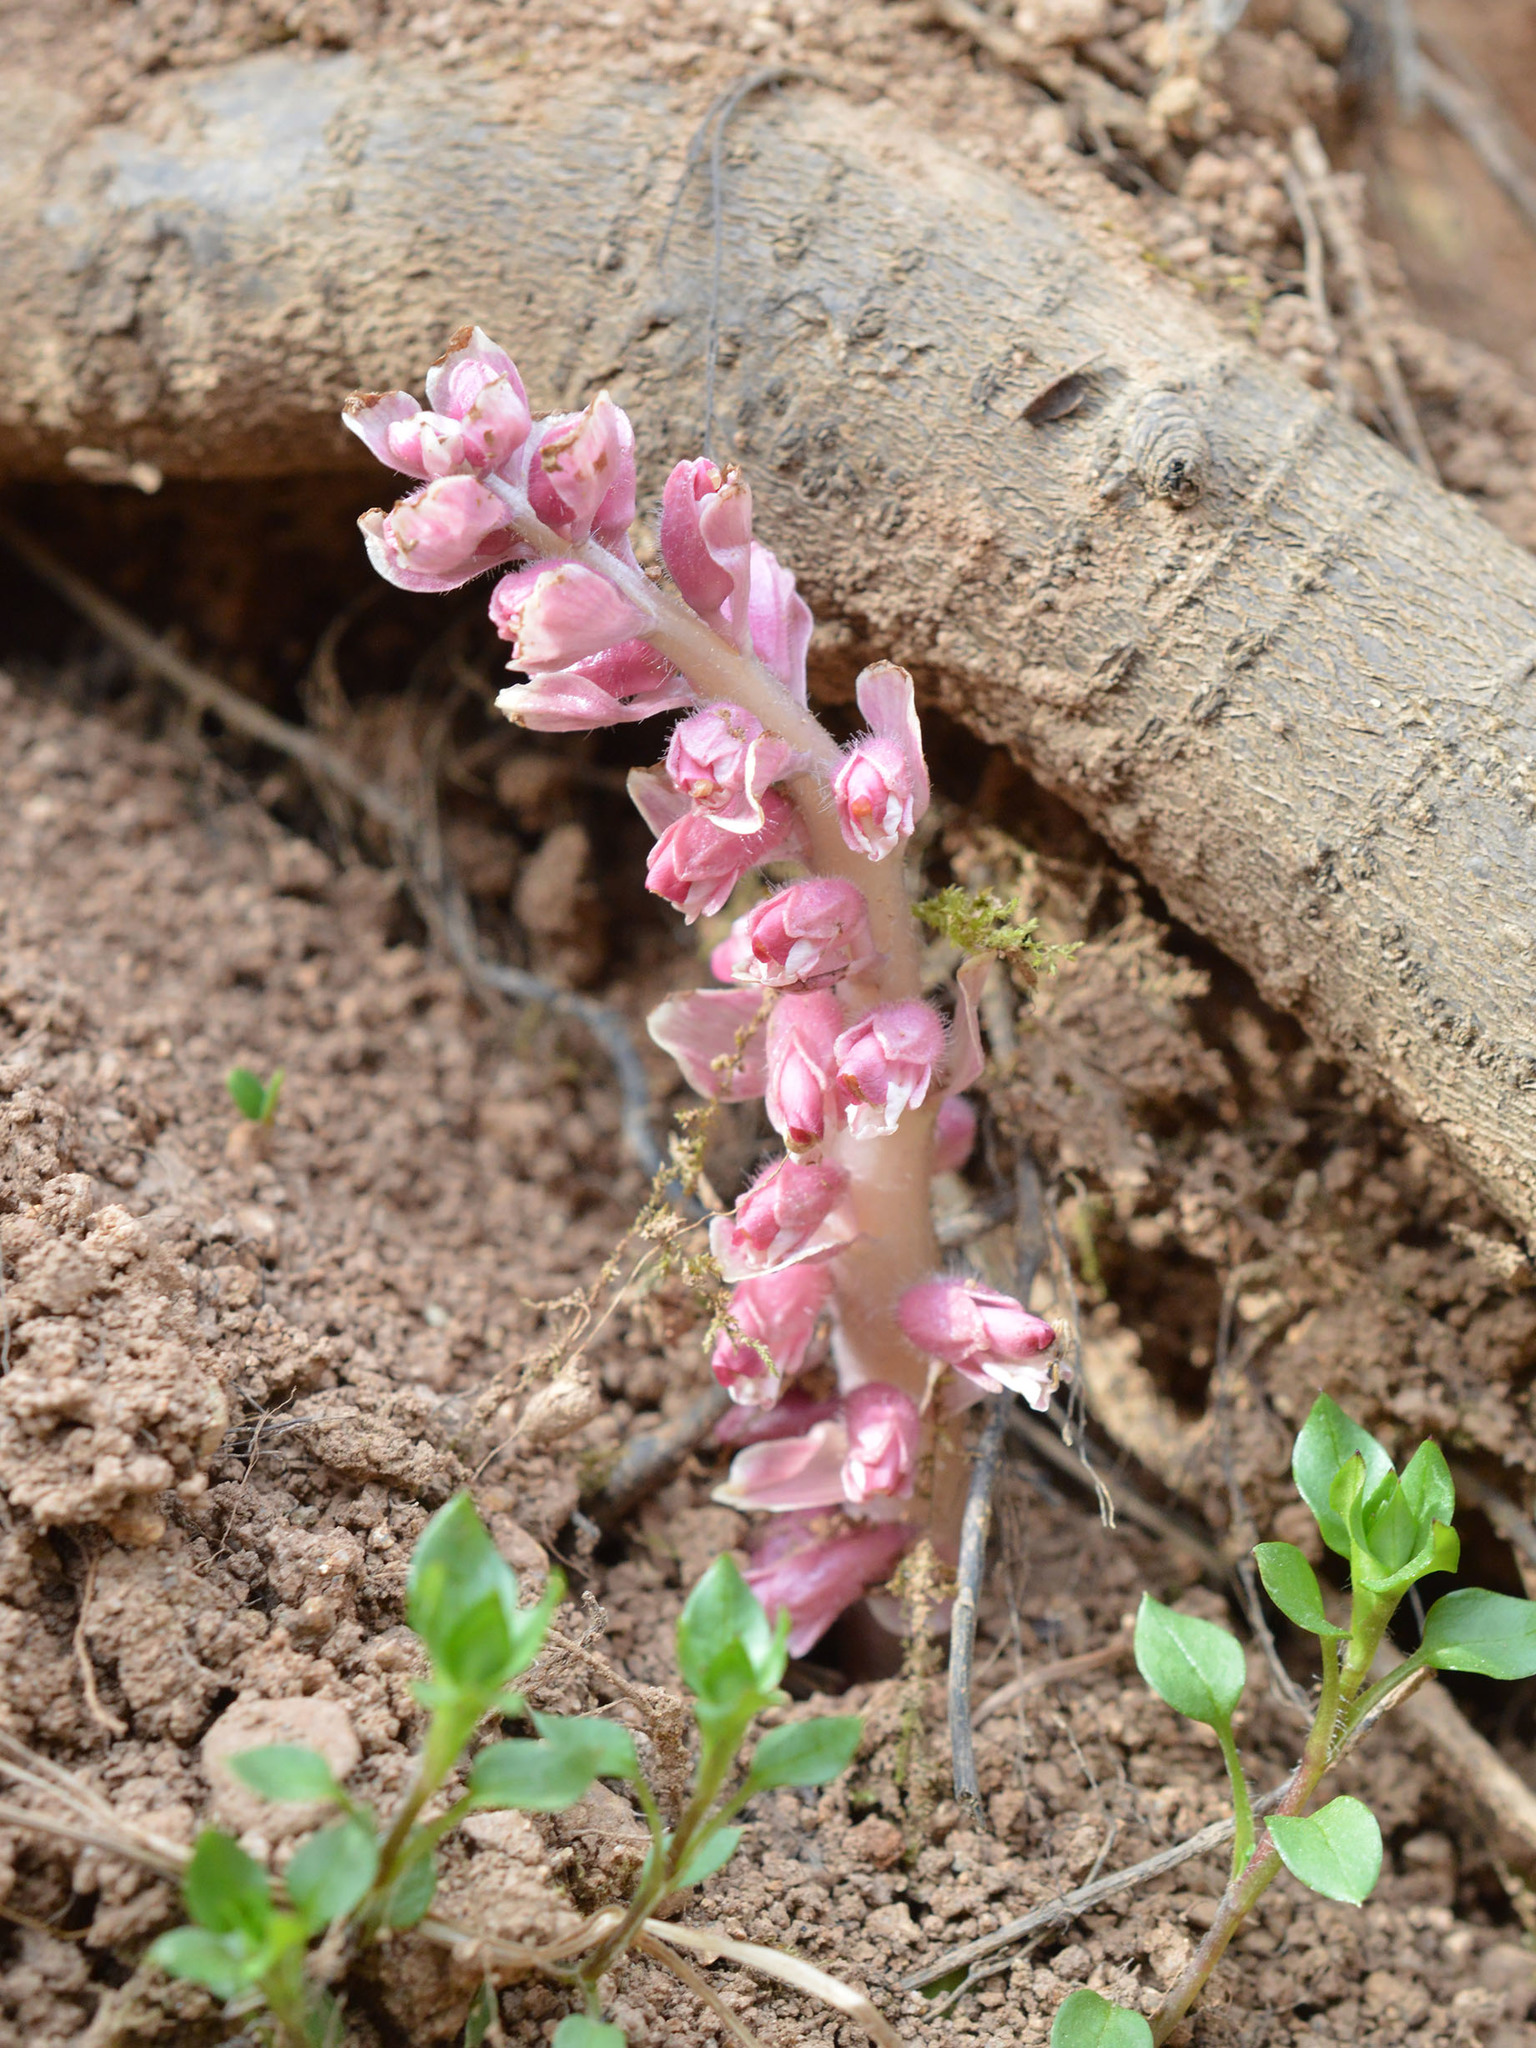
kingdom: Plantae
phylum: Tracheophyta
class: Magnoliopsida
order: Lamiales
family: Orobanchaceae
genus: Lathraea
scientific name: Lathraea squamaria
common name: Toothwort
